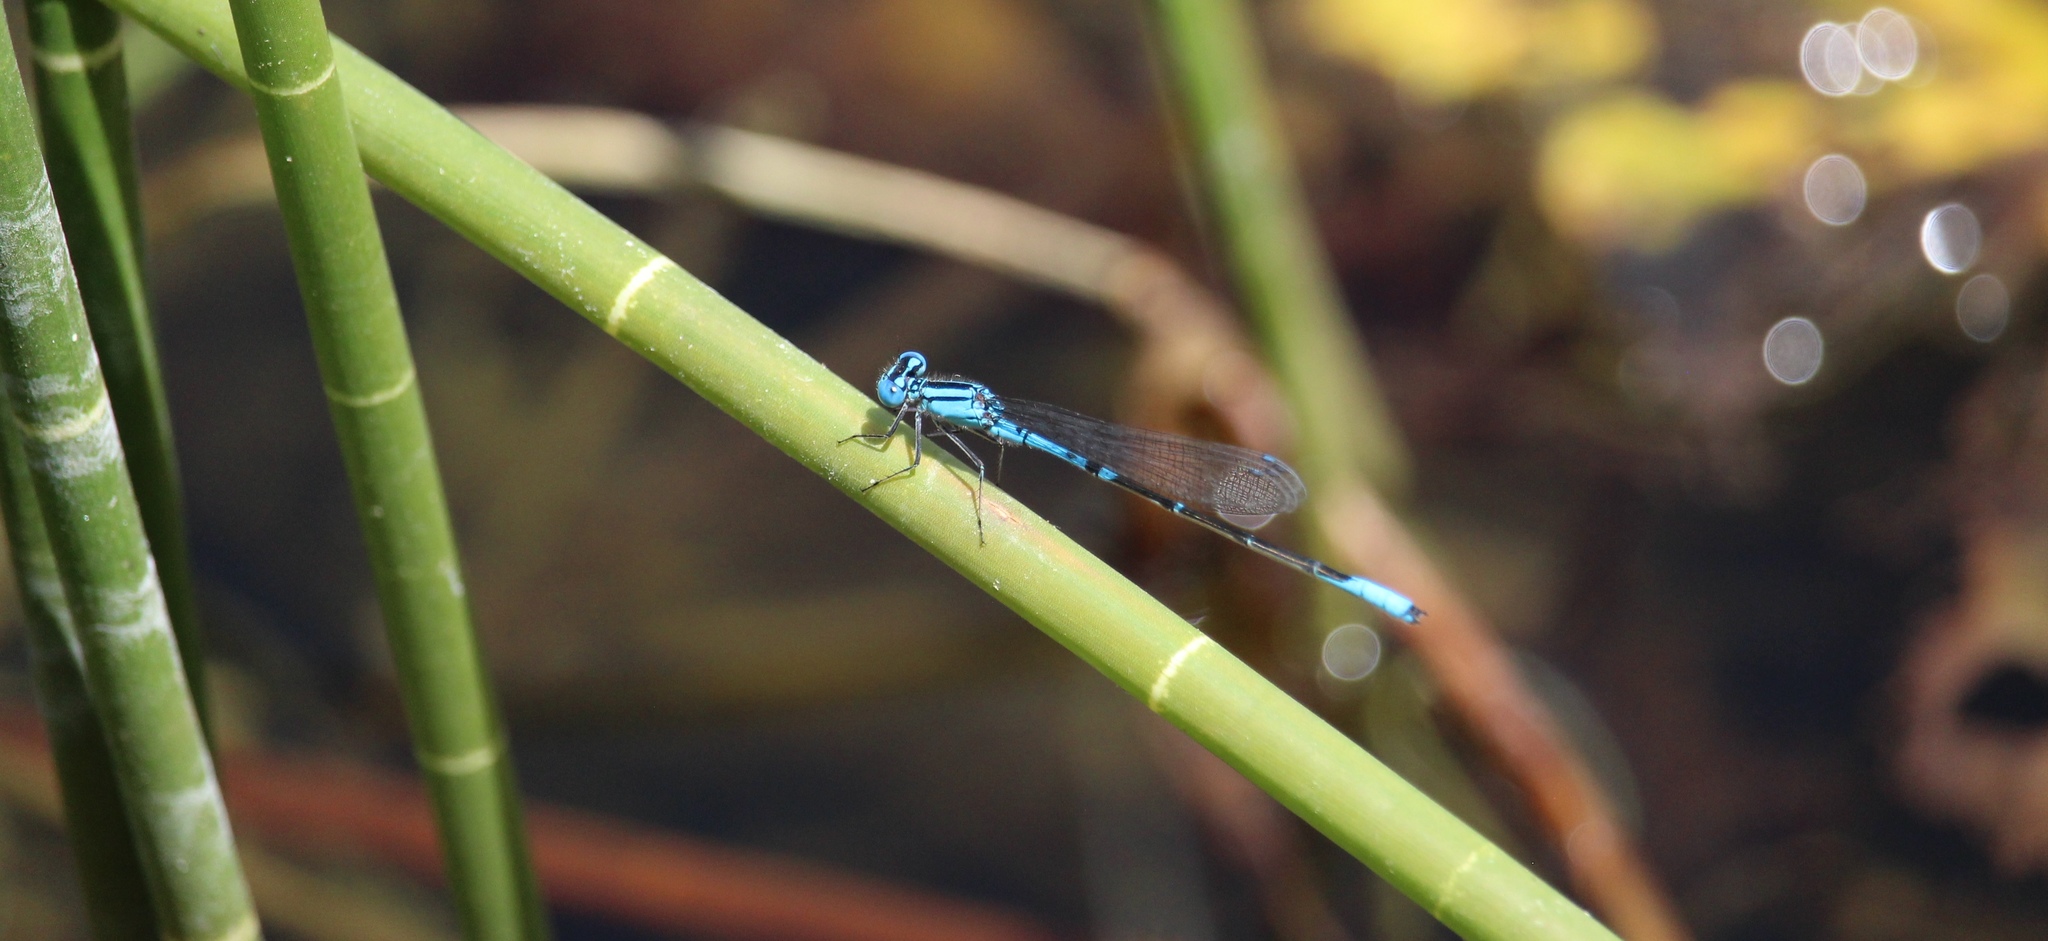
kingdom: Animalia
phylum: Arthropoda
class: Insecta
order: Odonata
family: Coenagrionidae
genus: Enacantha
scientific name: Enacantha caribbea
